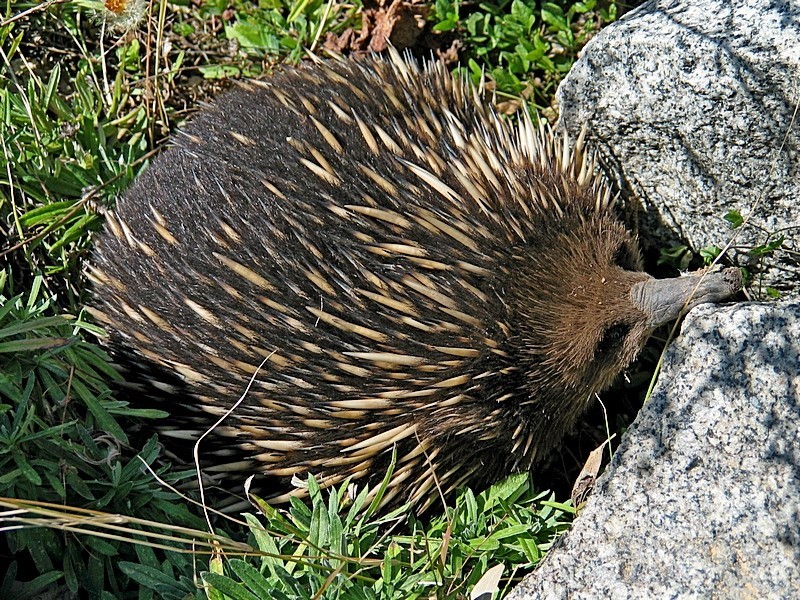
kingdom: Animalia
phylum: Chordata
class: Mammalia
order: Monotremata
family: Tachyglossidae
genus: Tachyglossus
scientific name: Tachyglossus aculeatus
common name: Short-beaked echidna
